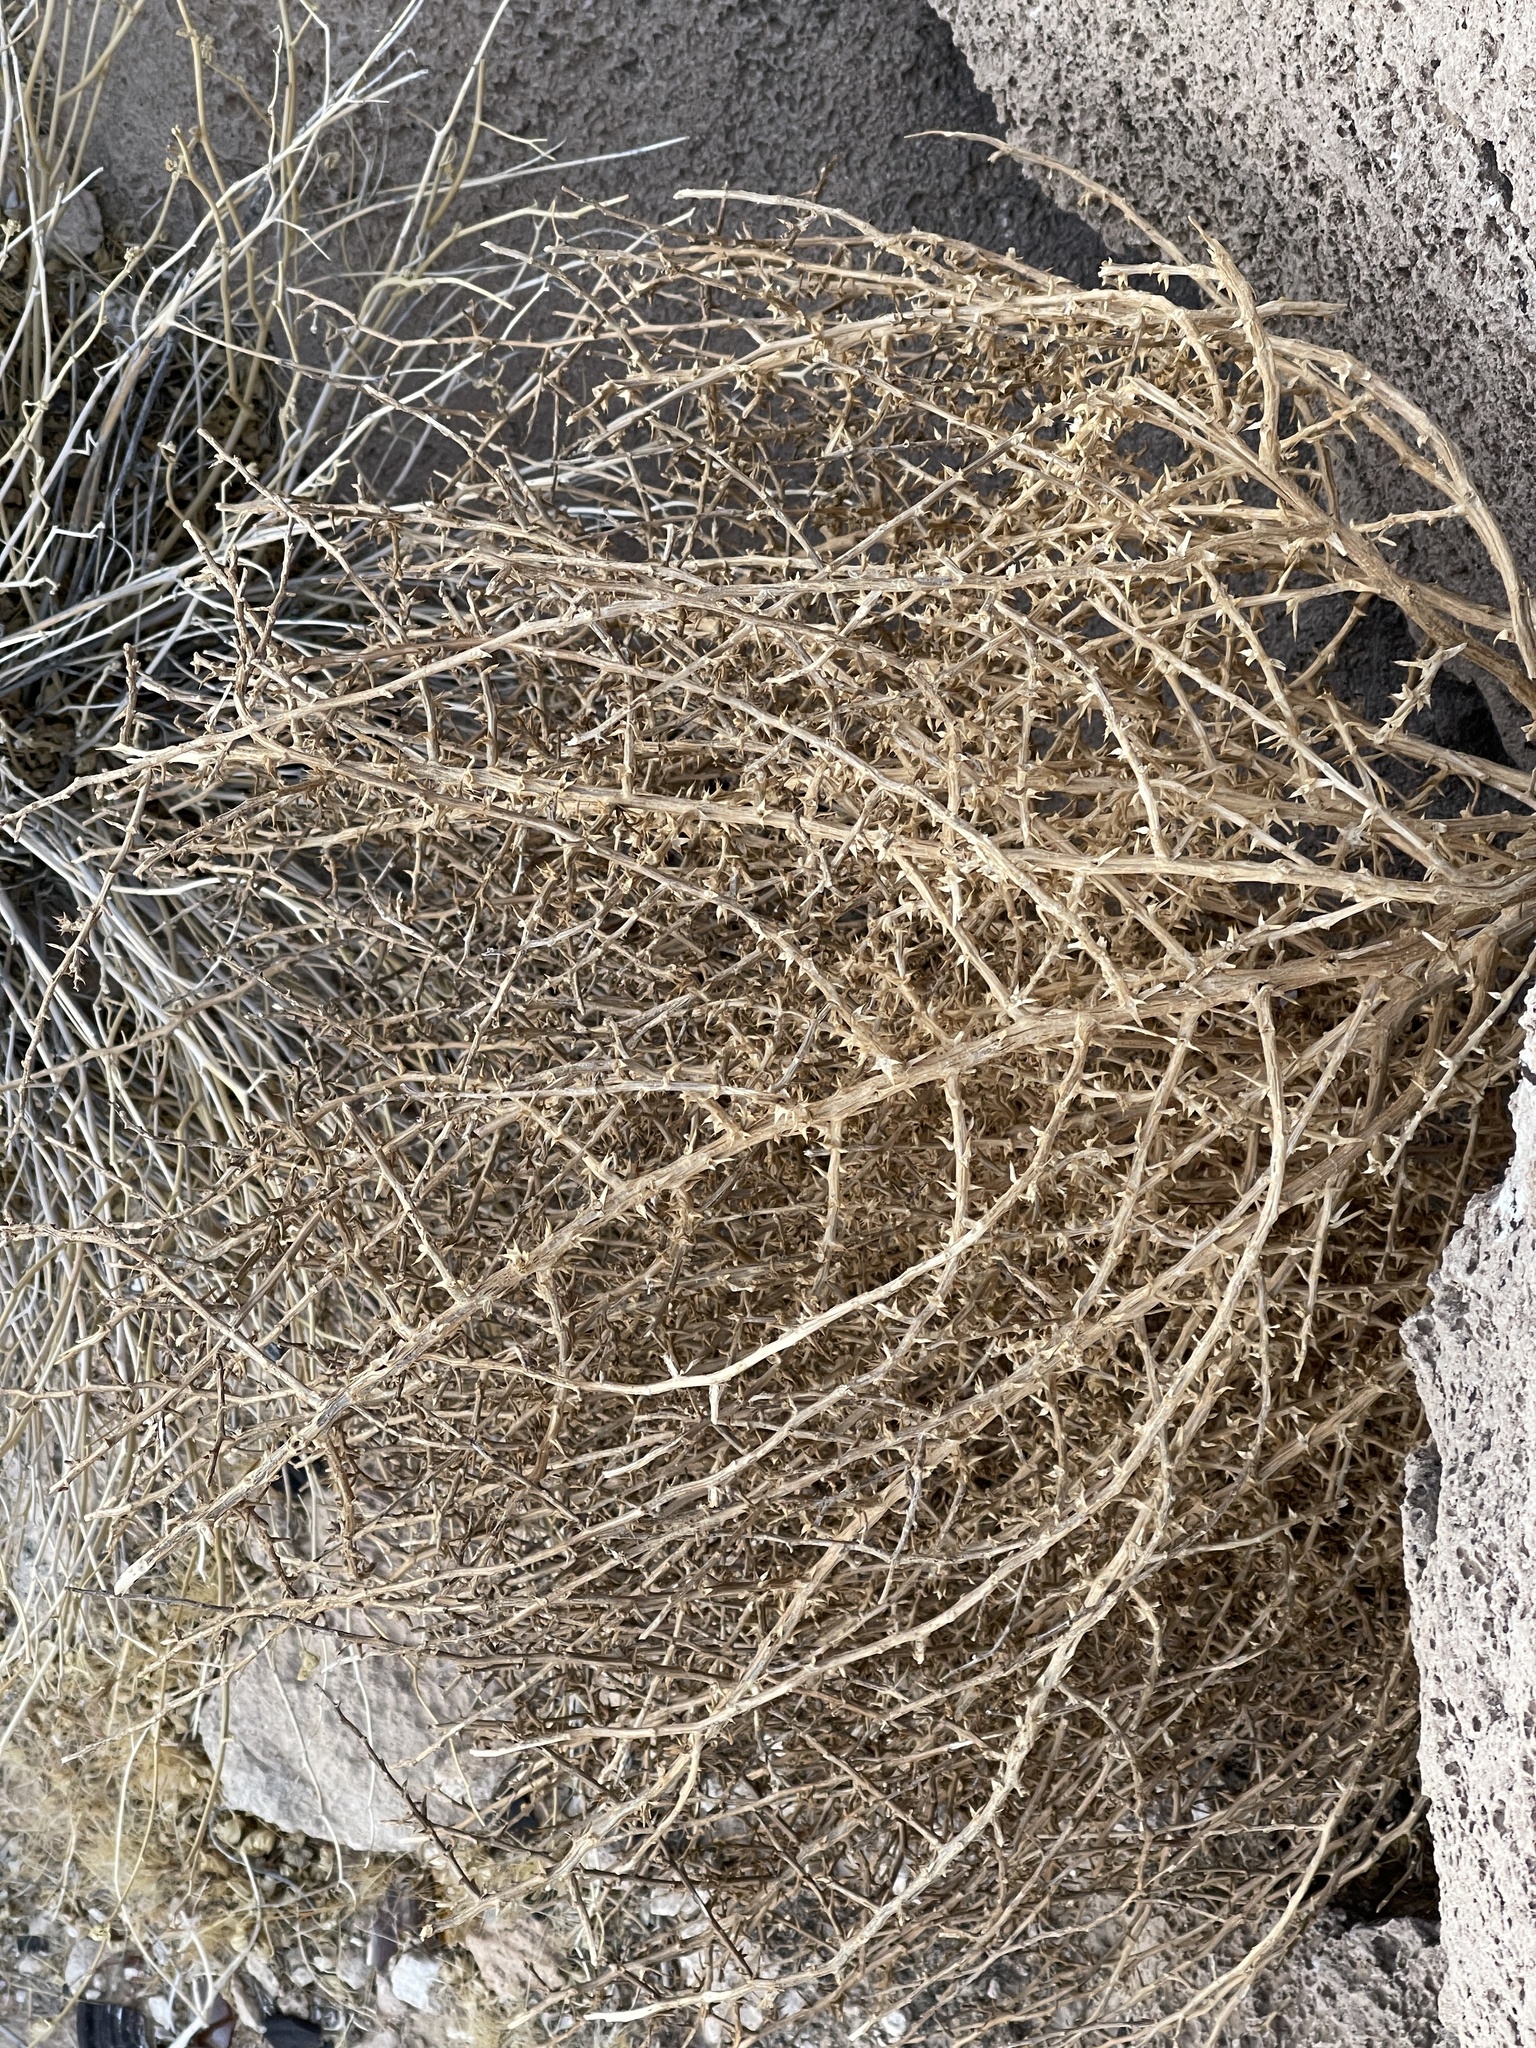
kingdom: Plantae
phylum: Tracheophyta
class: Magnoliopsida
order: Caryophyllales
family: Amaranthaceae
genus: Salsola
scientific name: Salsola tragus
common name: Prickly russian thistle
